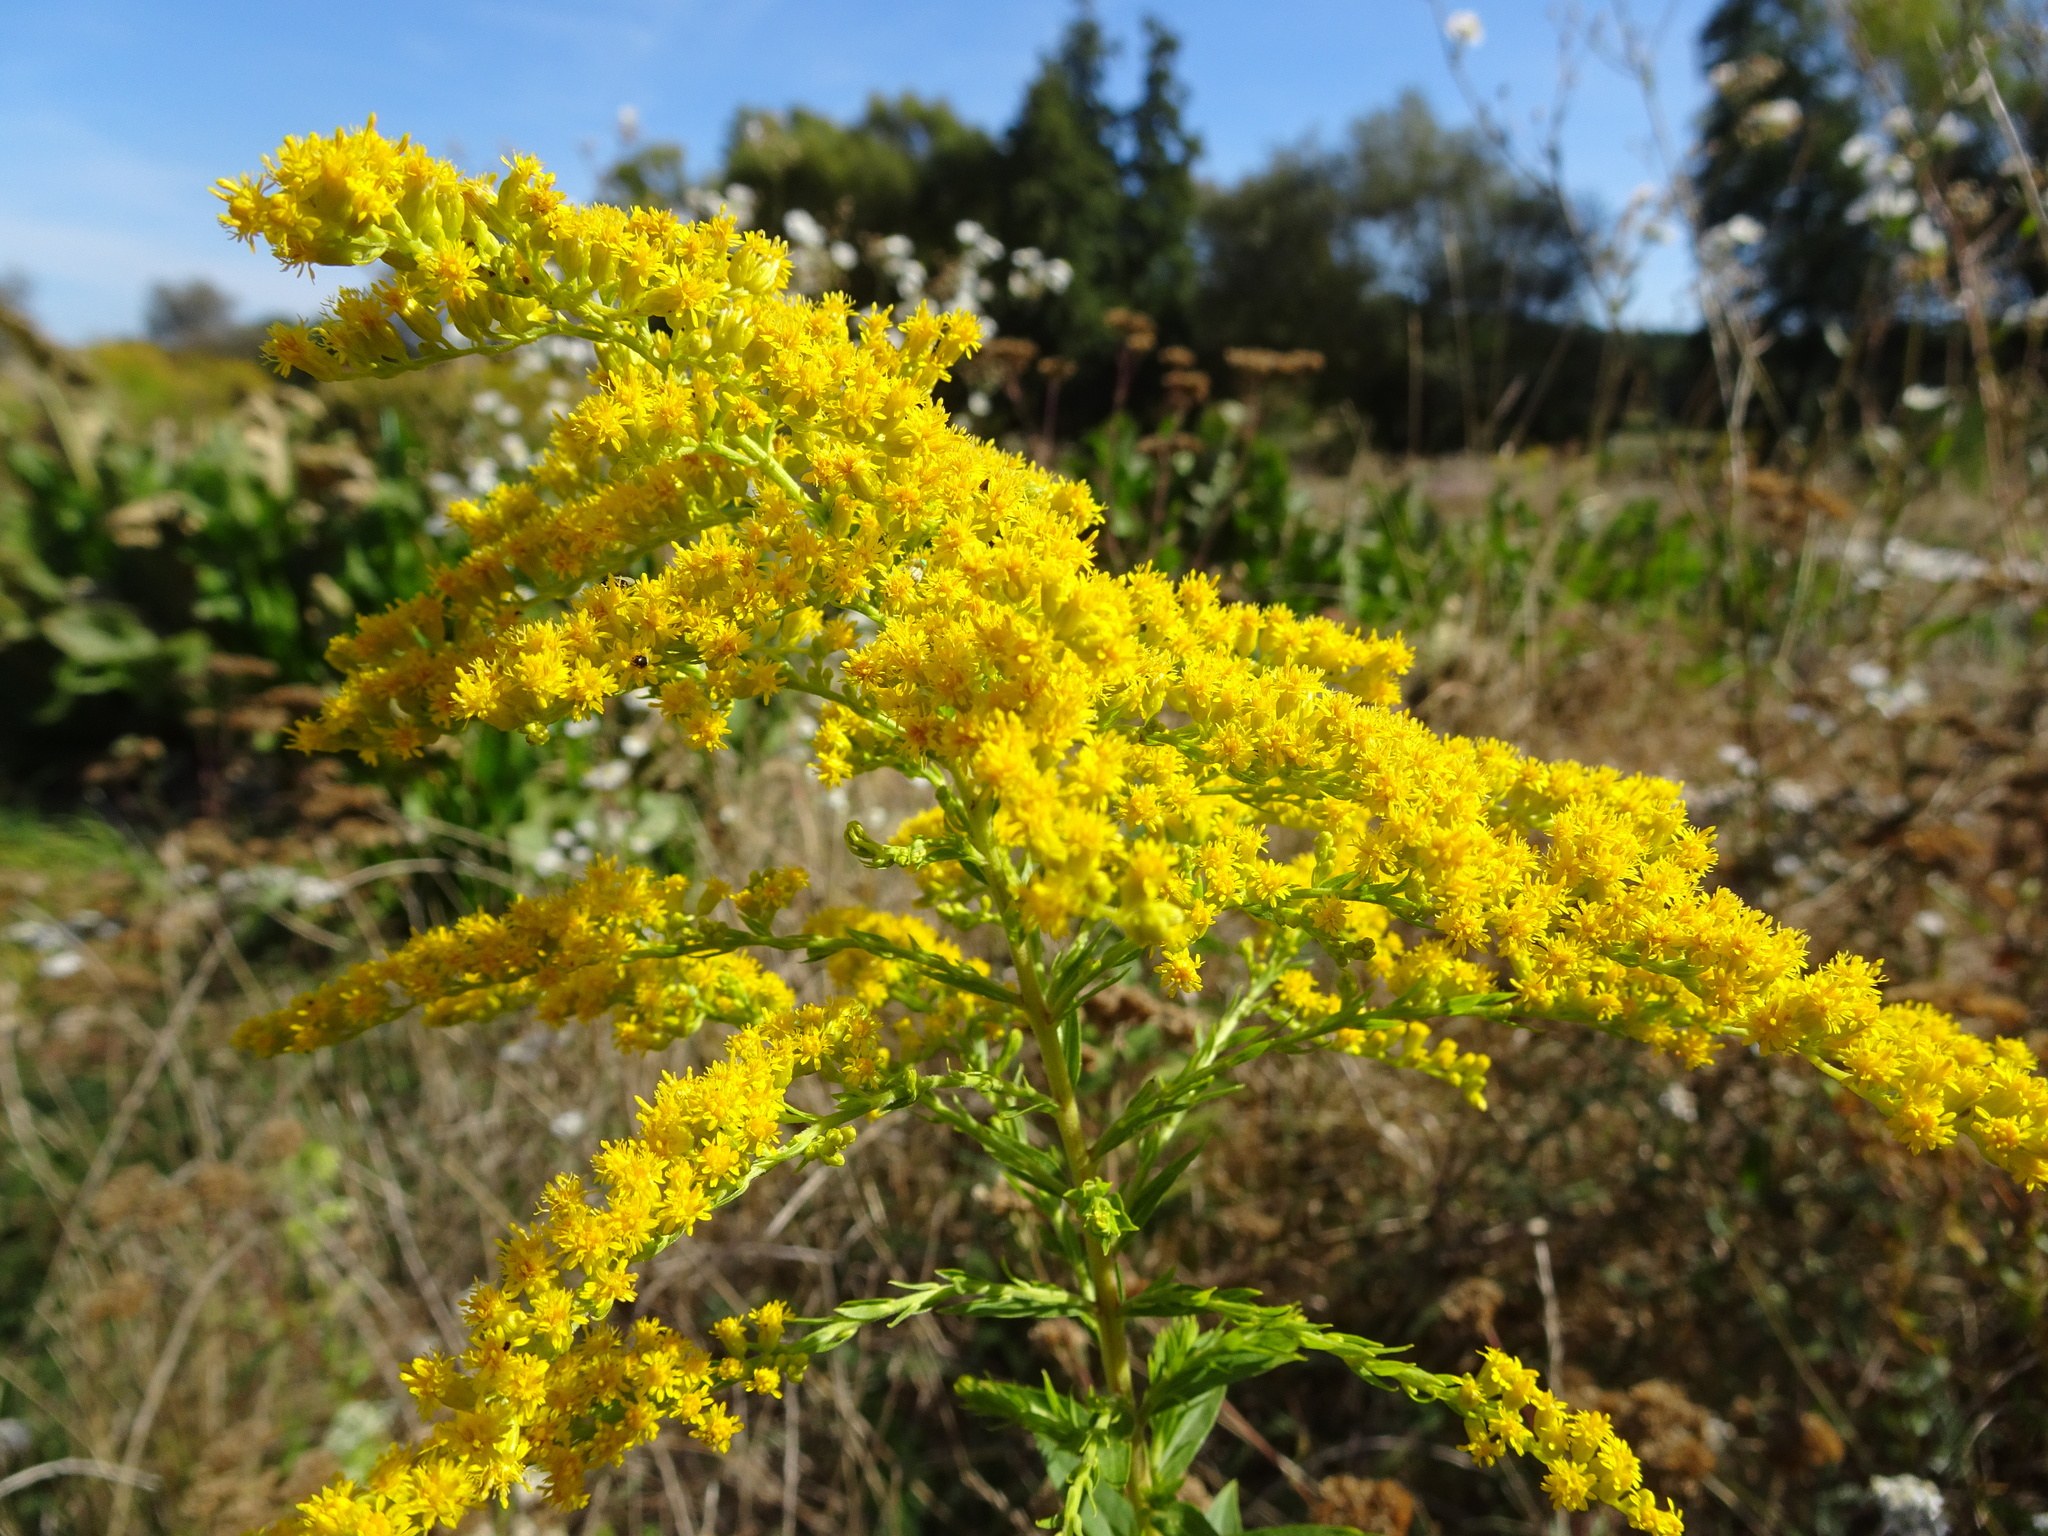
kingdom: Plantae
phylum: Tracheophyta
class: Magnoliopsida
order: Asterales
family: Asteraceae
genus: Solidago
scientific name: Solidago canadensis
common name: Canada goldenrod
